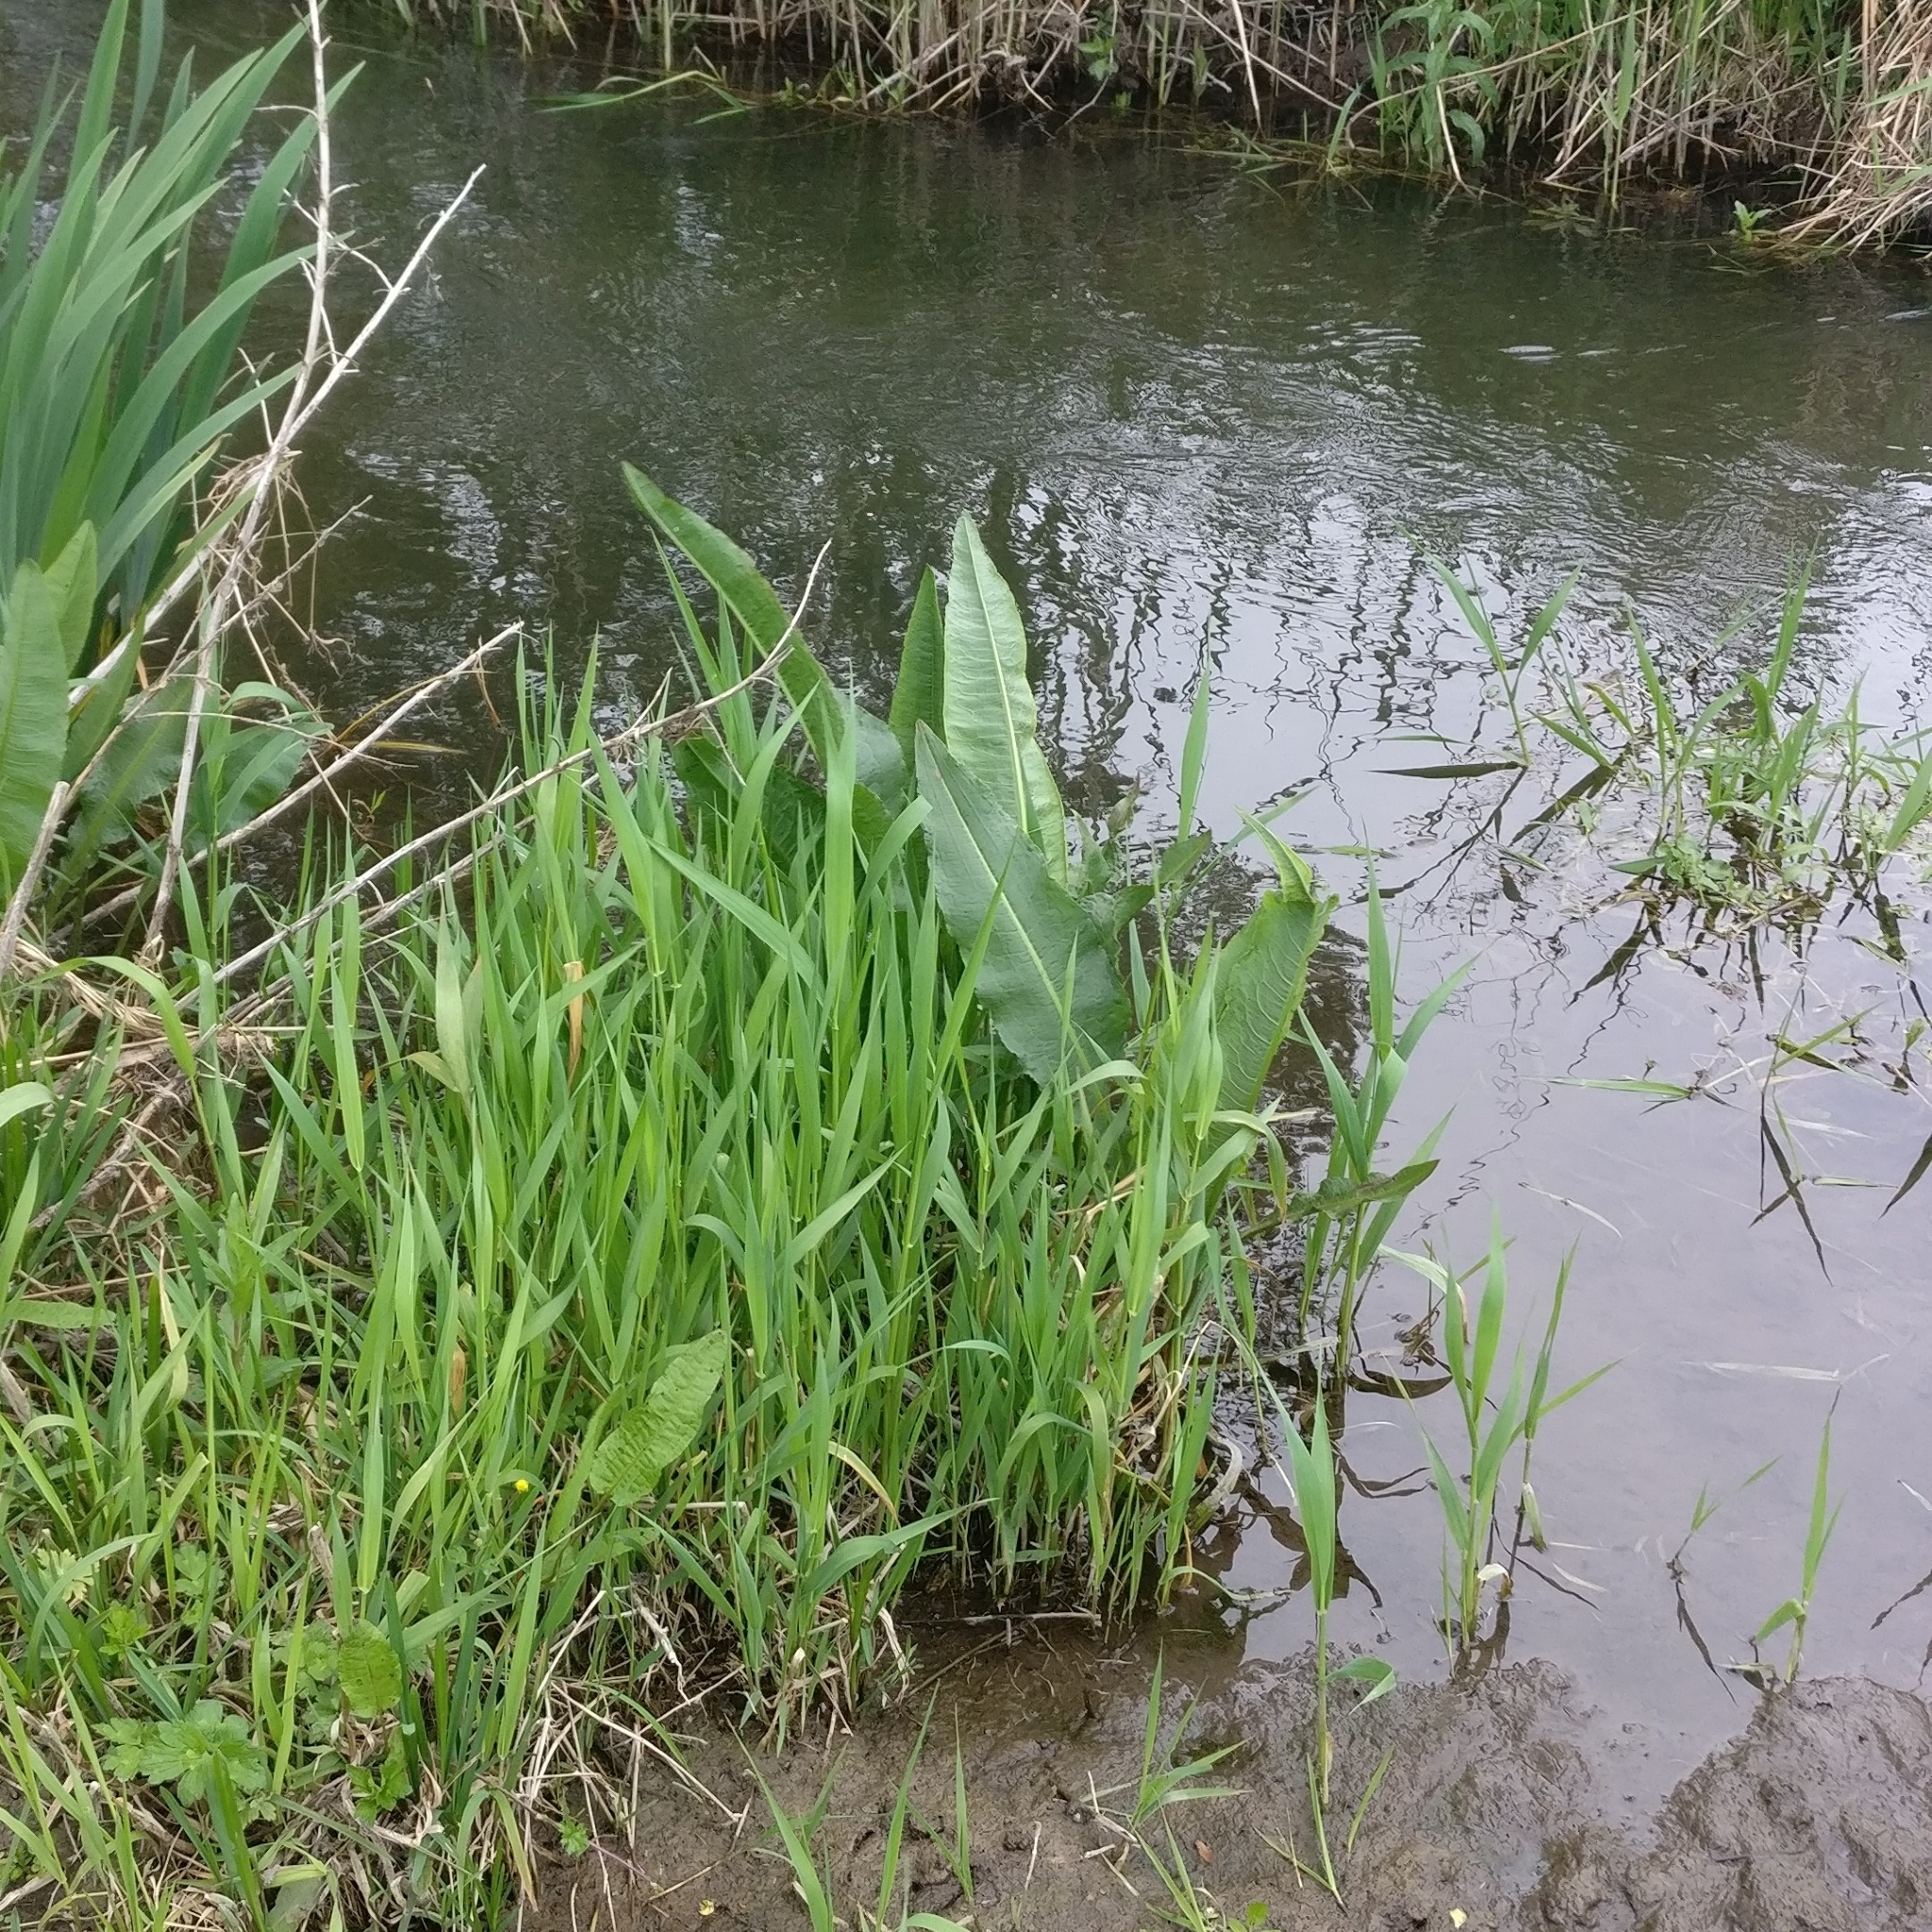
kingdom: Plantae
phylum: Tracheophyta
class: Magnoliopsida
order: Caryophyllales
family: Polygonaceae
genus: Rumex
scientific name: Rumex hydrolapathum
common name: Water dock
